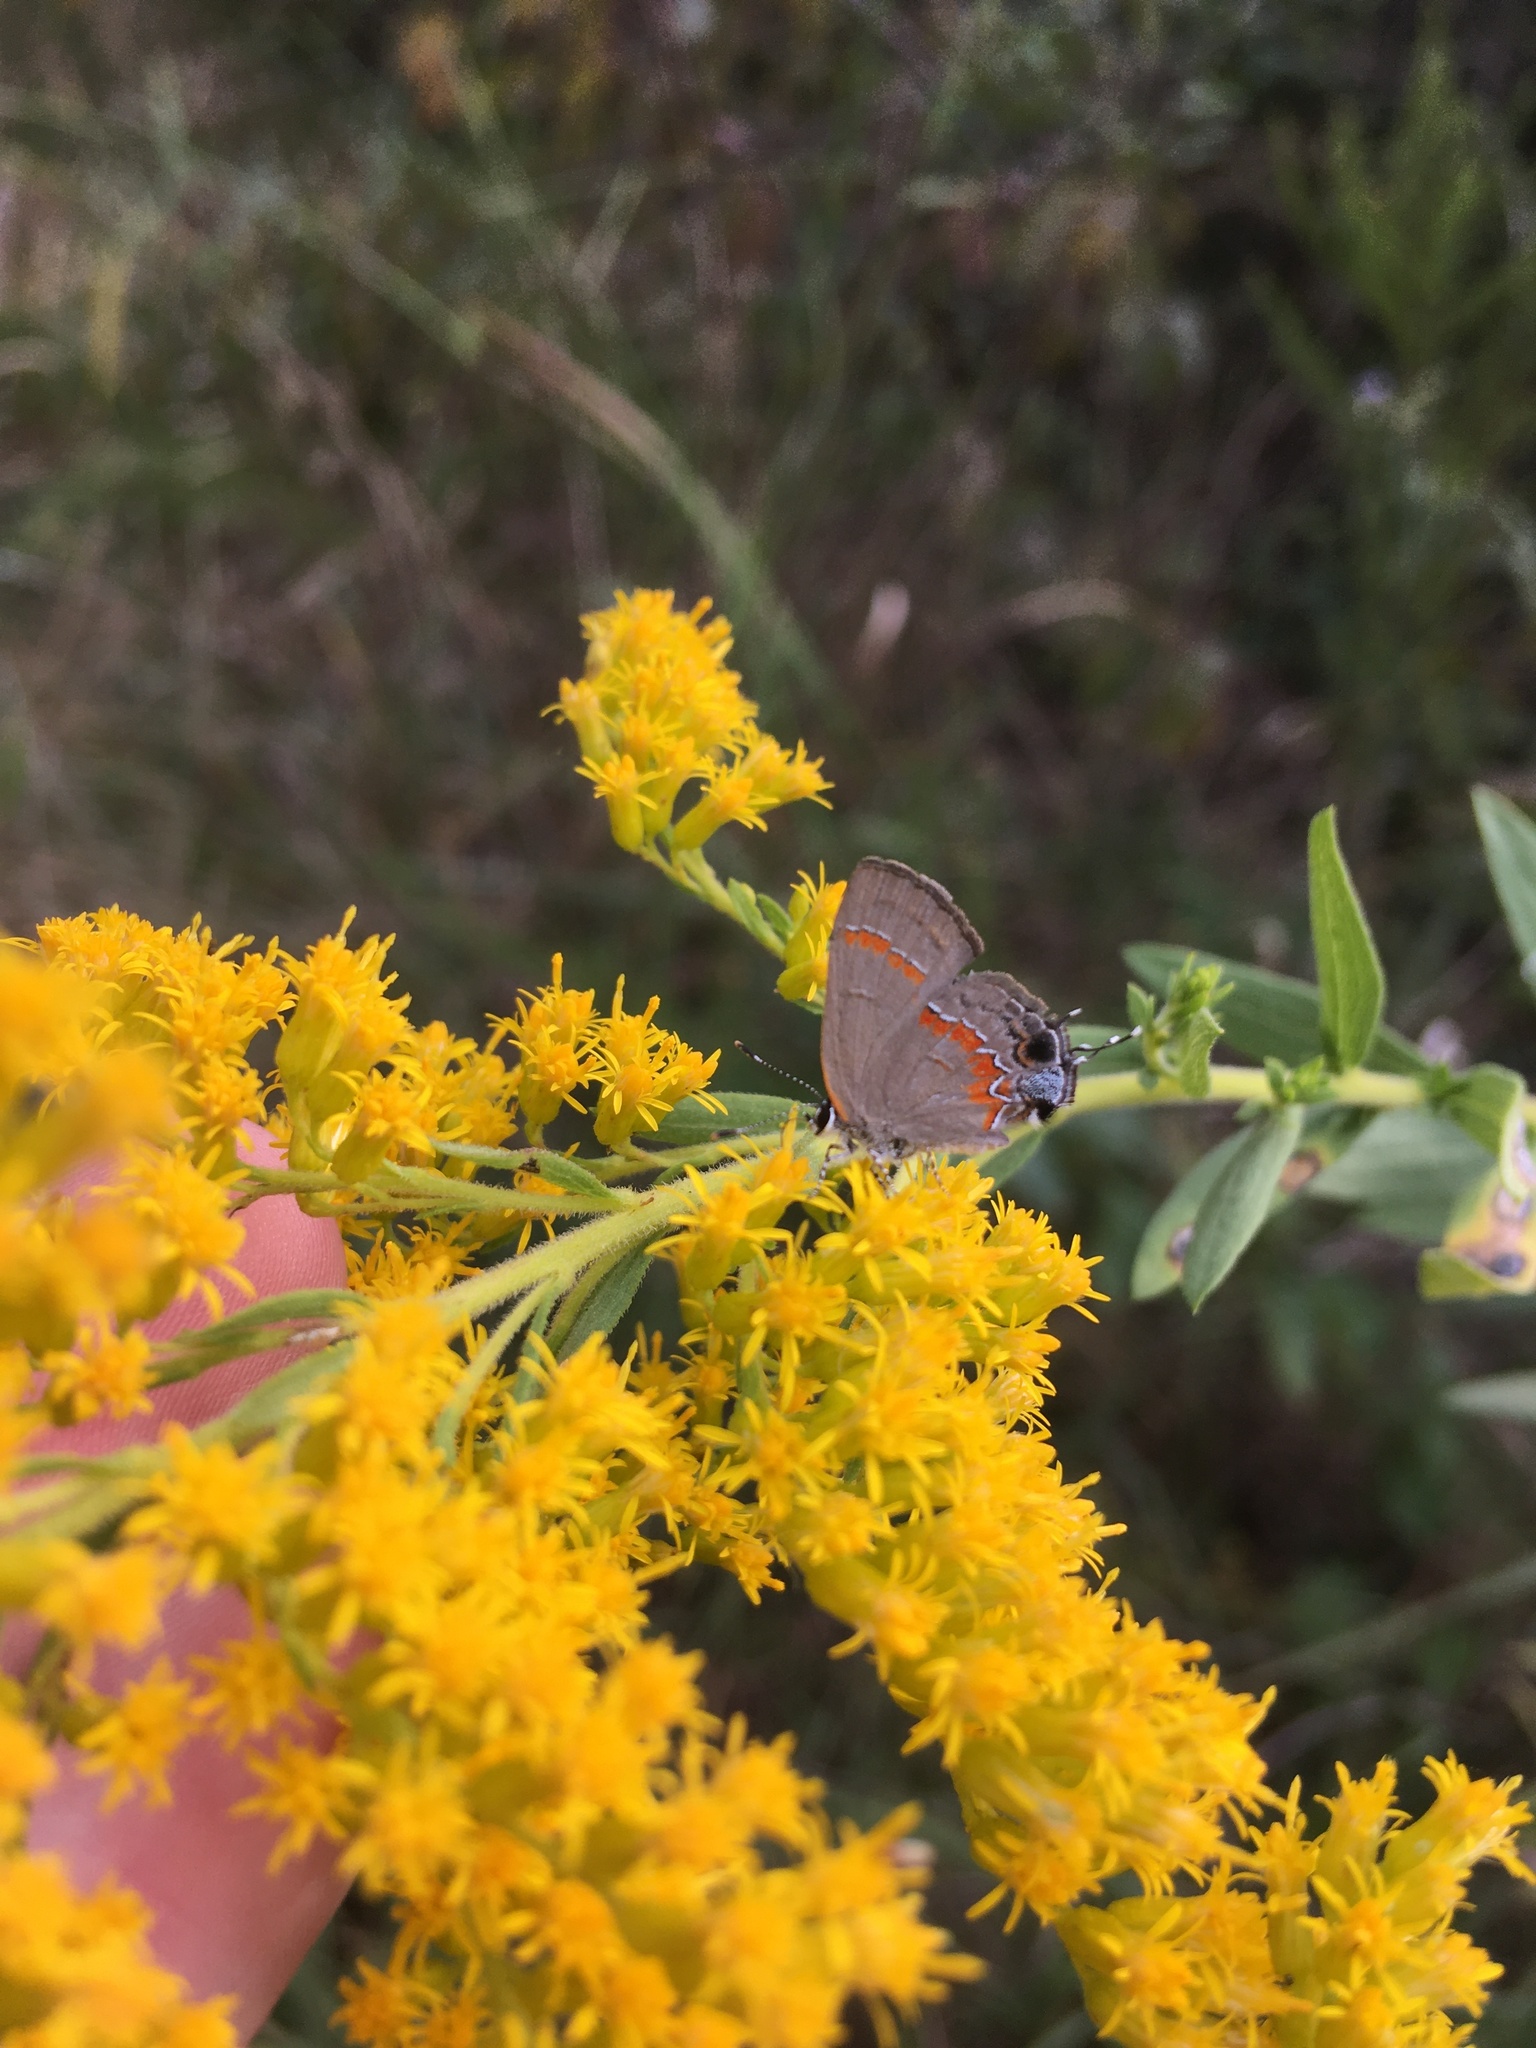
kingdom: Animalia
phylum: Arthropoda
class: Insecta
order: Lepidoptera
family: Lycaenidae
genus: Calycopis
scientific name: Calycopis cecrops
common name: Red-banded hairstreak
